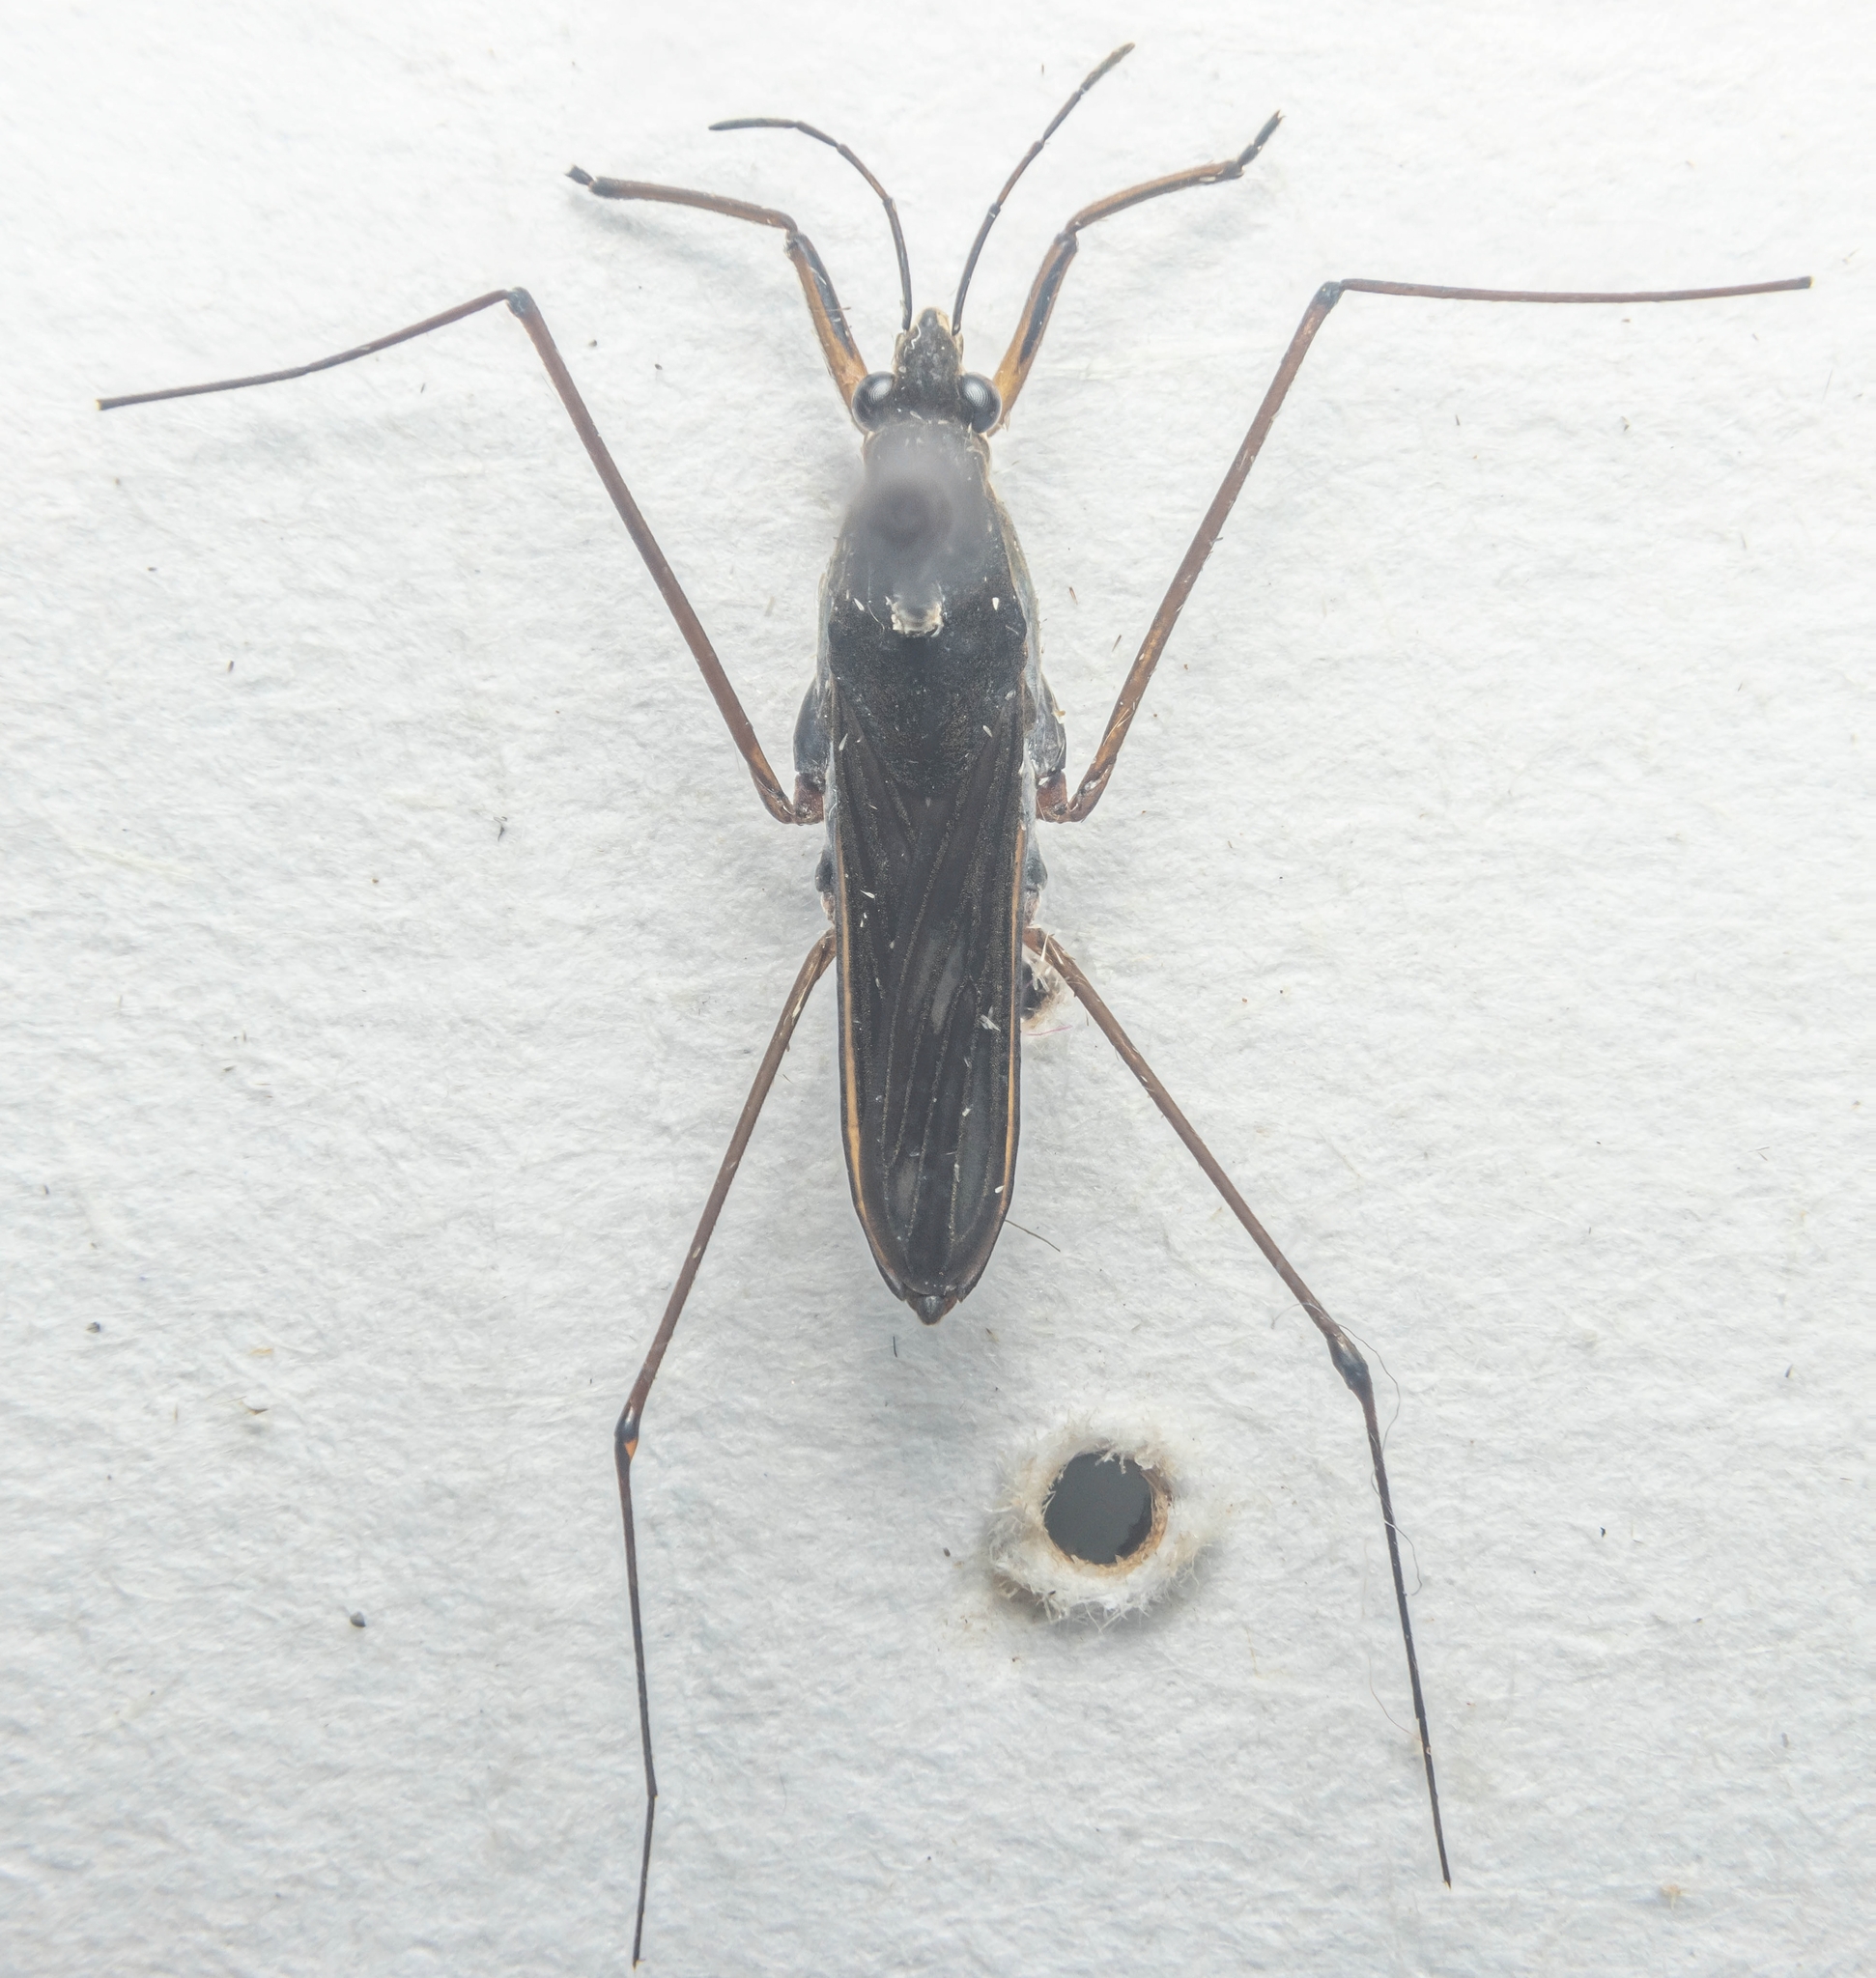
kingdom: Animalia
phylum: Arthropoda
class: Insecta
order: Hemiptera
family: Gerridae
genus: Gerris
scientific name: Gerris lacustris
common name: Common pondskater
